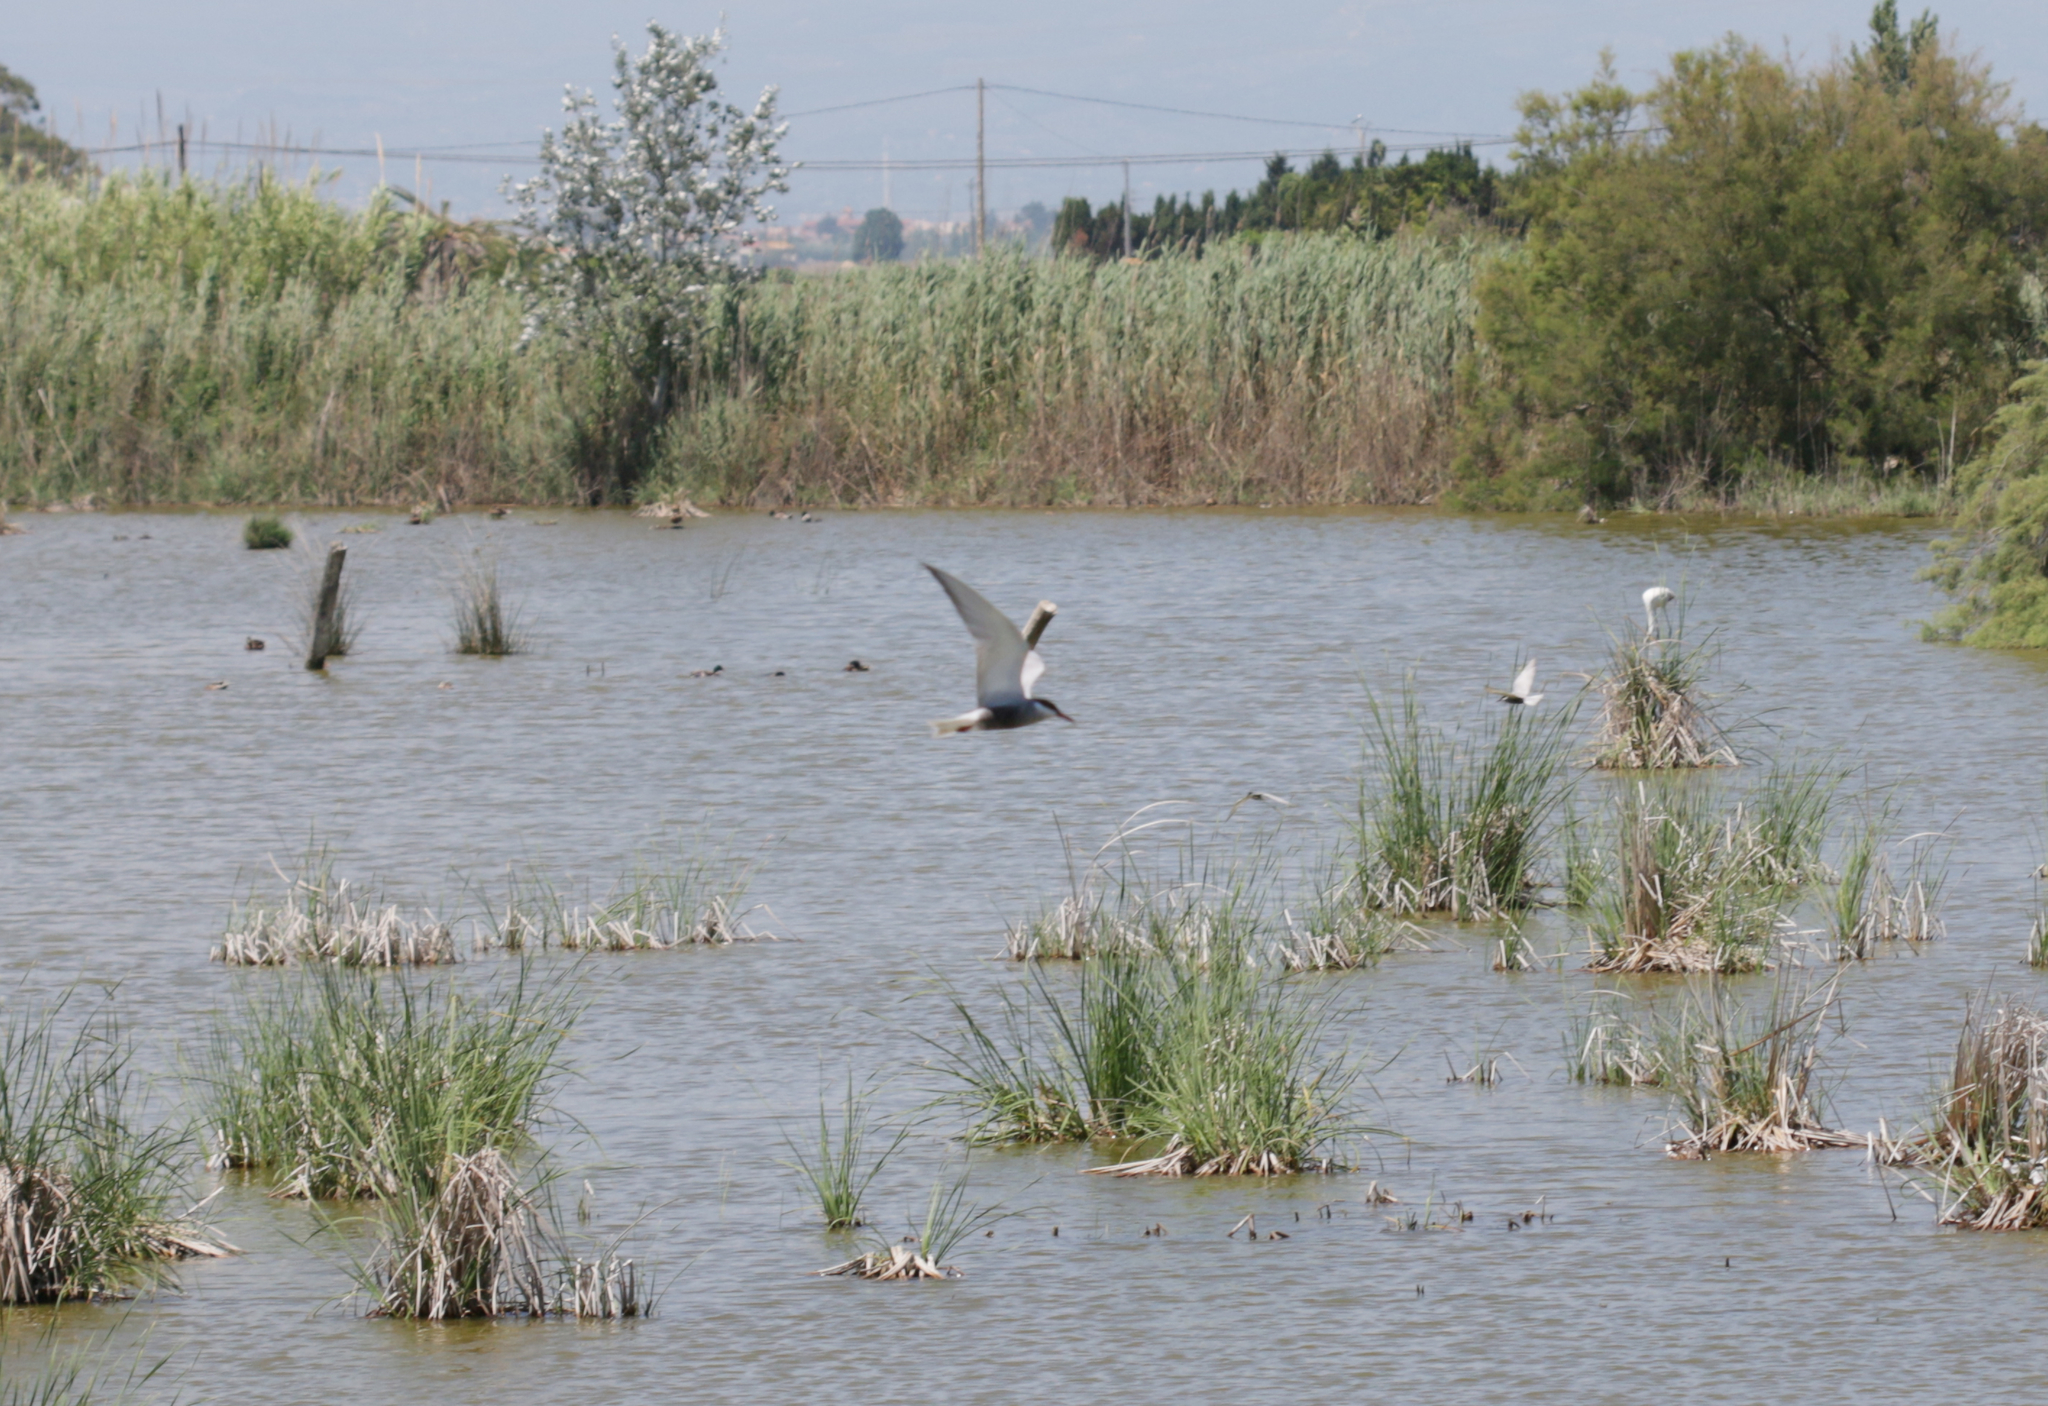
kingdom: Animalia
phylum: Chordata
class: Aves
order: Charadriiformes
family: Laridae
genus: Chlidonias
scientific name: Chlidonias hybrida
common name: Whiskered tern
